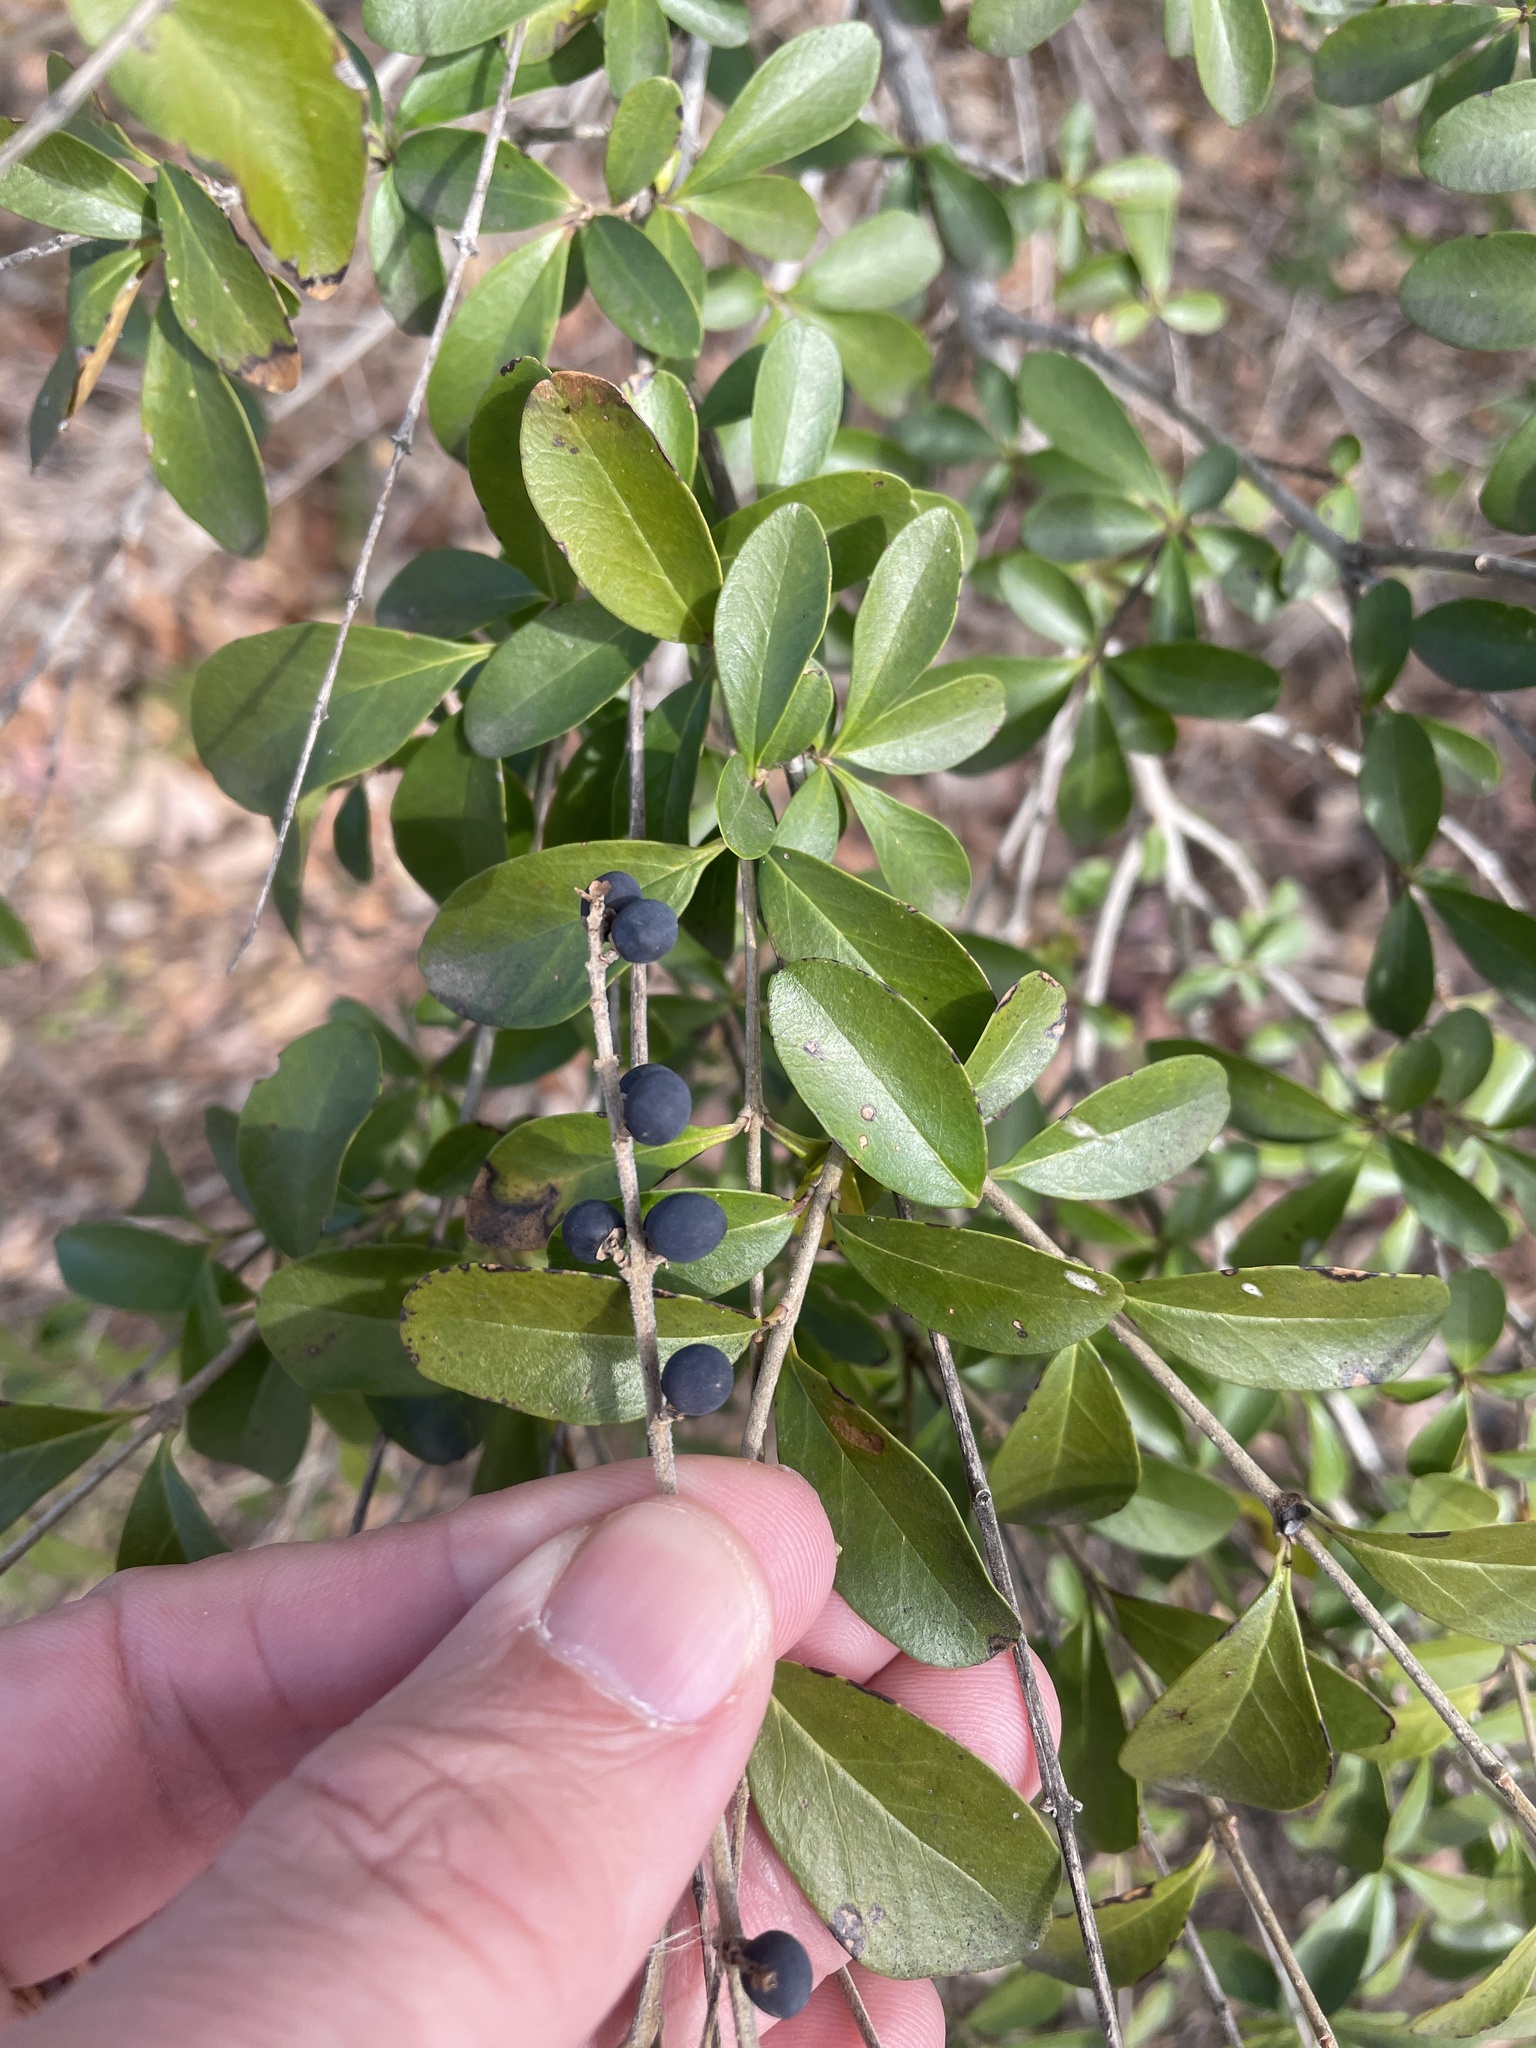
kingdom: Plantae
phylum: Tracheophyta
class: Magnoliopsida
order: Lamiales
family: Oleaceae
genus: Ligustrum
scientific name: Ligustrum quihoui
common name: Waxyleaf privet
